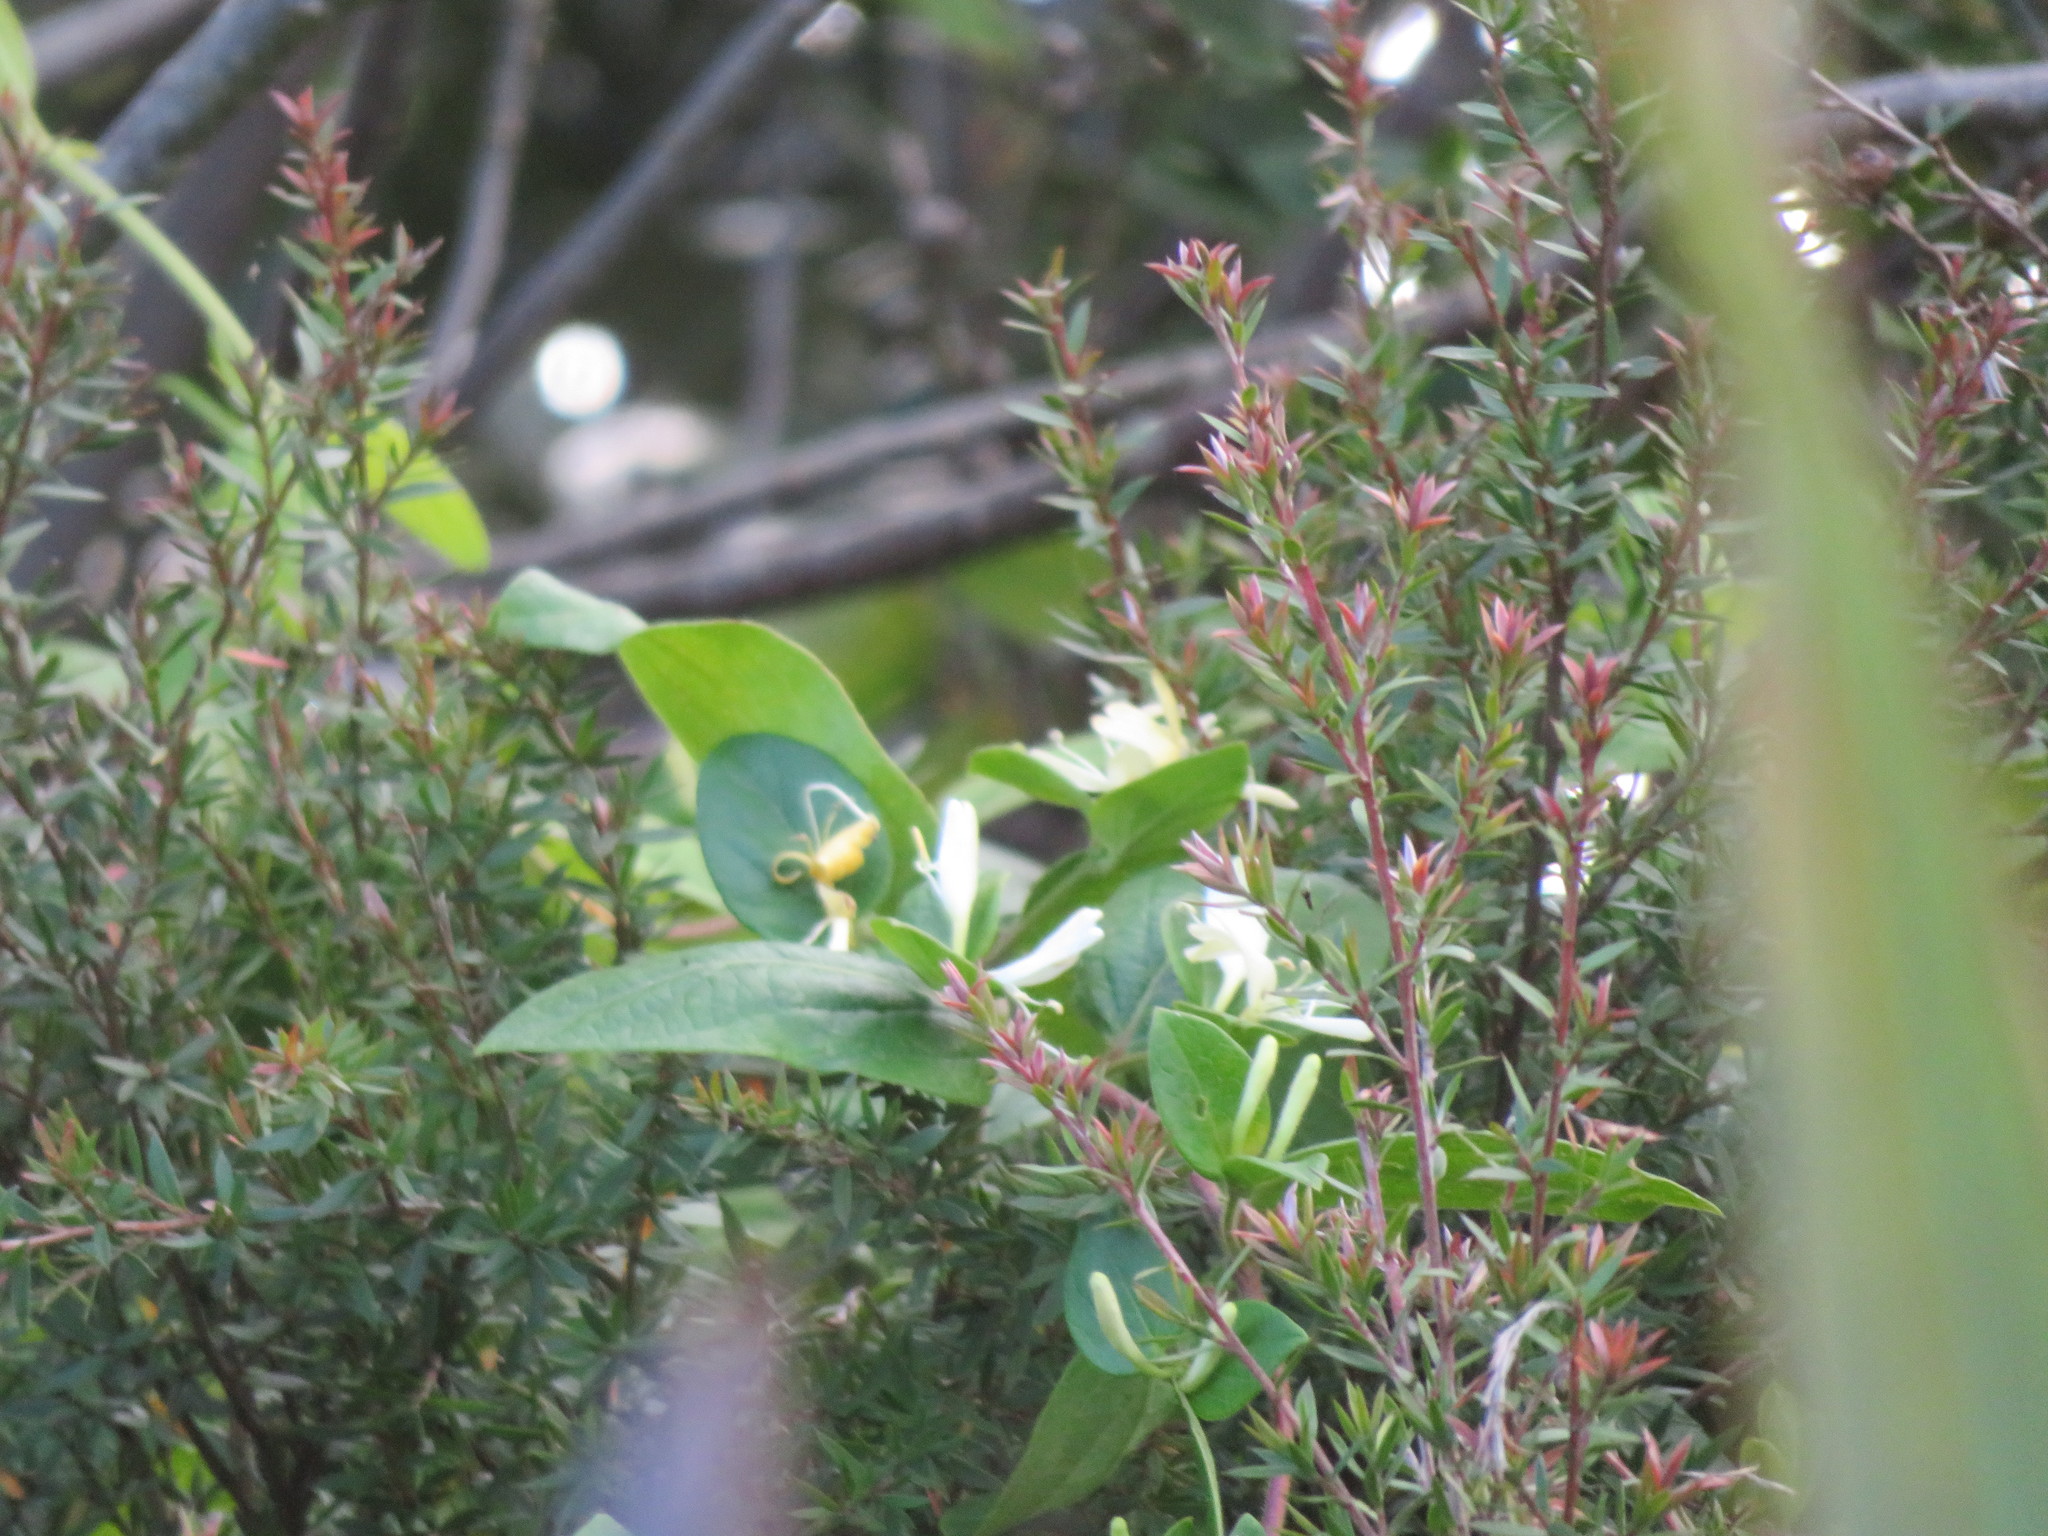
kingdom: Plantae
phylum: Tracheophyta
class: Magnoliopsida
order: Dipsacales
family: Caprifoliaceae
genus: Lonicera
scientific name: Lonicera japonica
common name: Japanese honeysuckle
